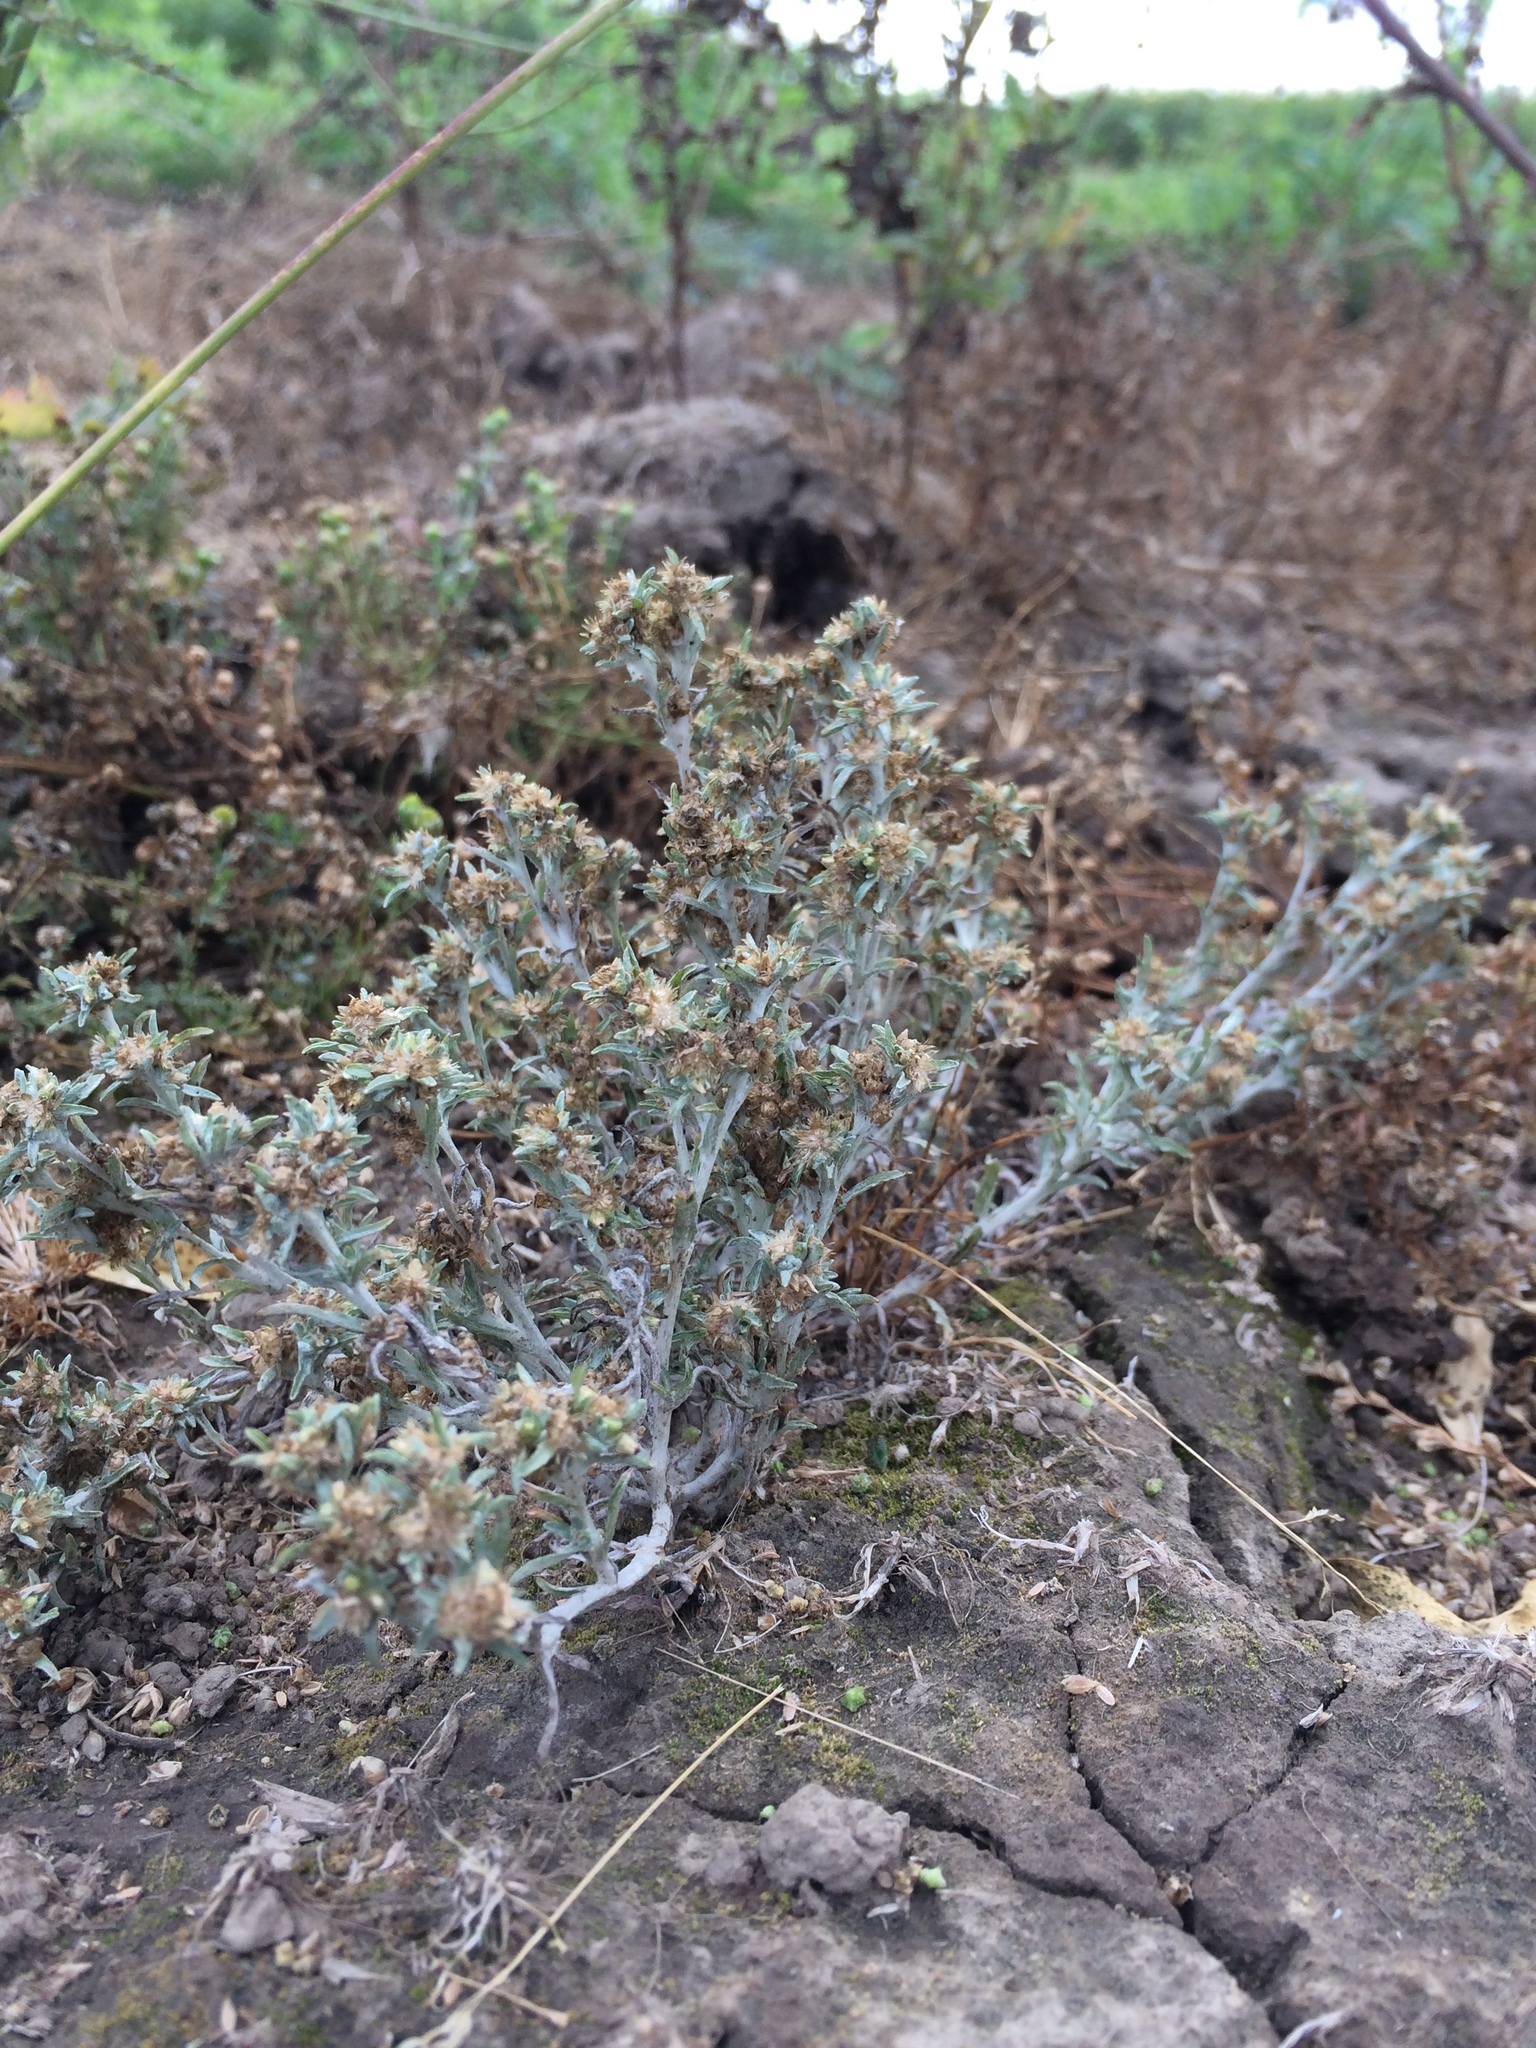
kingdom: Plantae
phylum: Tracheophyta
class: Magnoliopsida
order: Asterales
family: Asteraceae
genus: Gnaphalium
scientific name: Gnaphalium uliginosum
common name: Marsh cudweed
